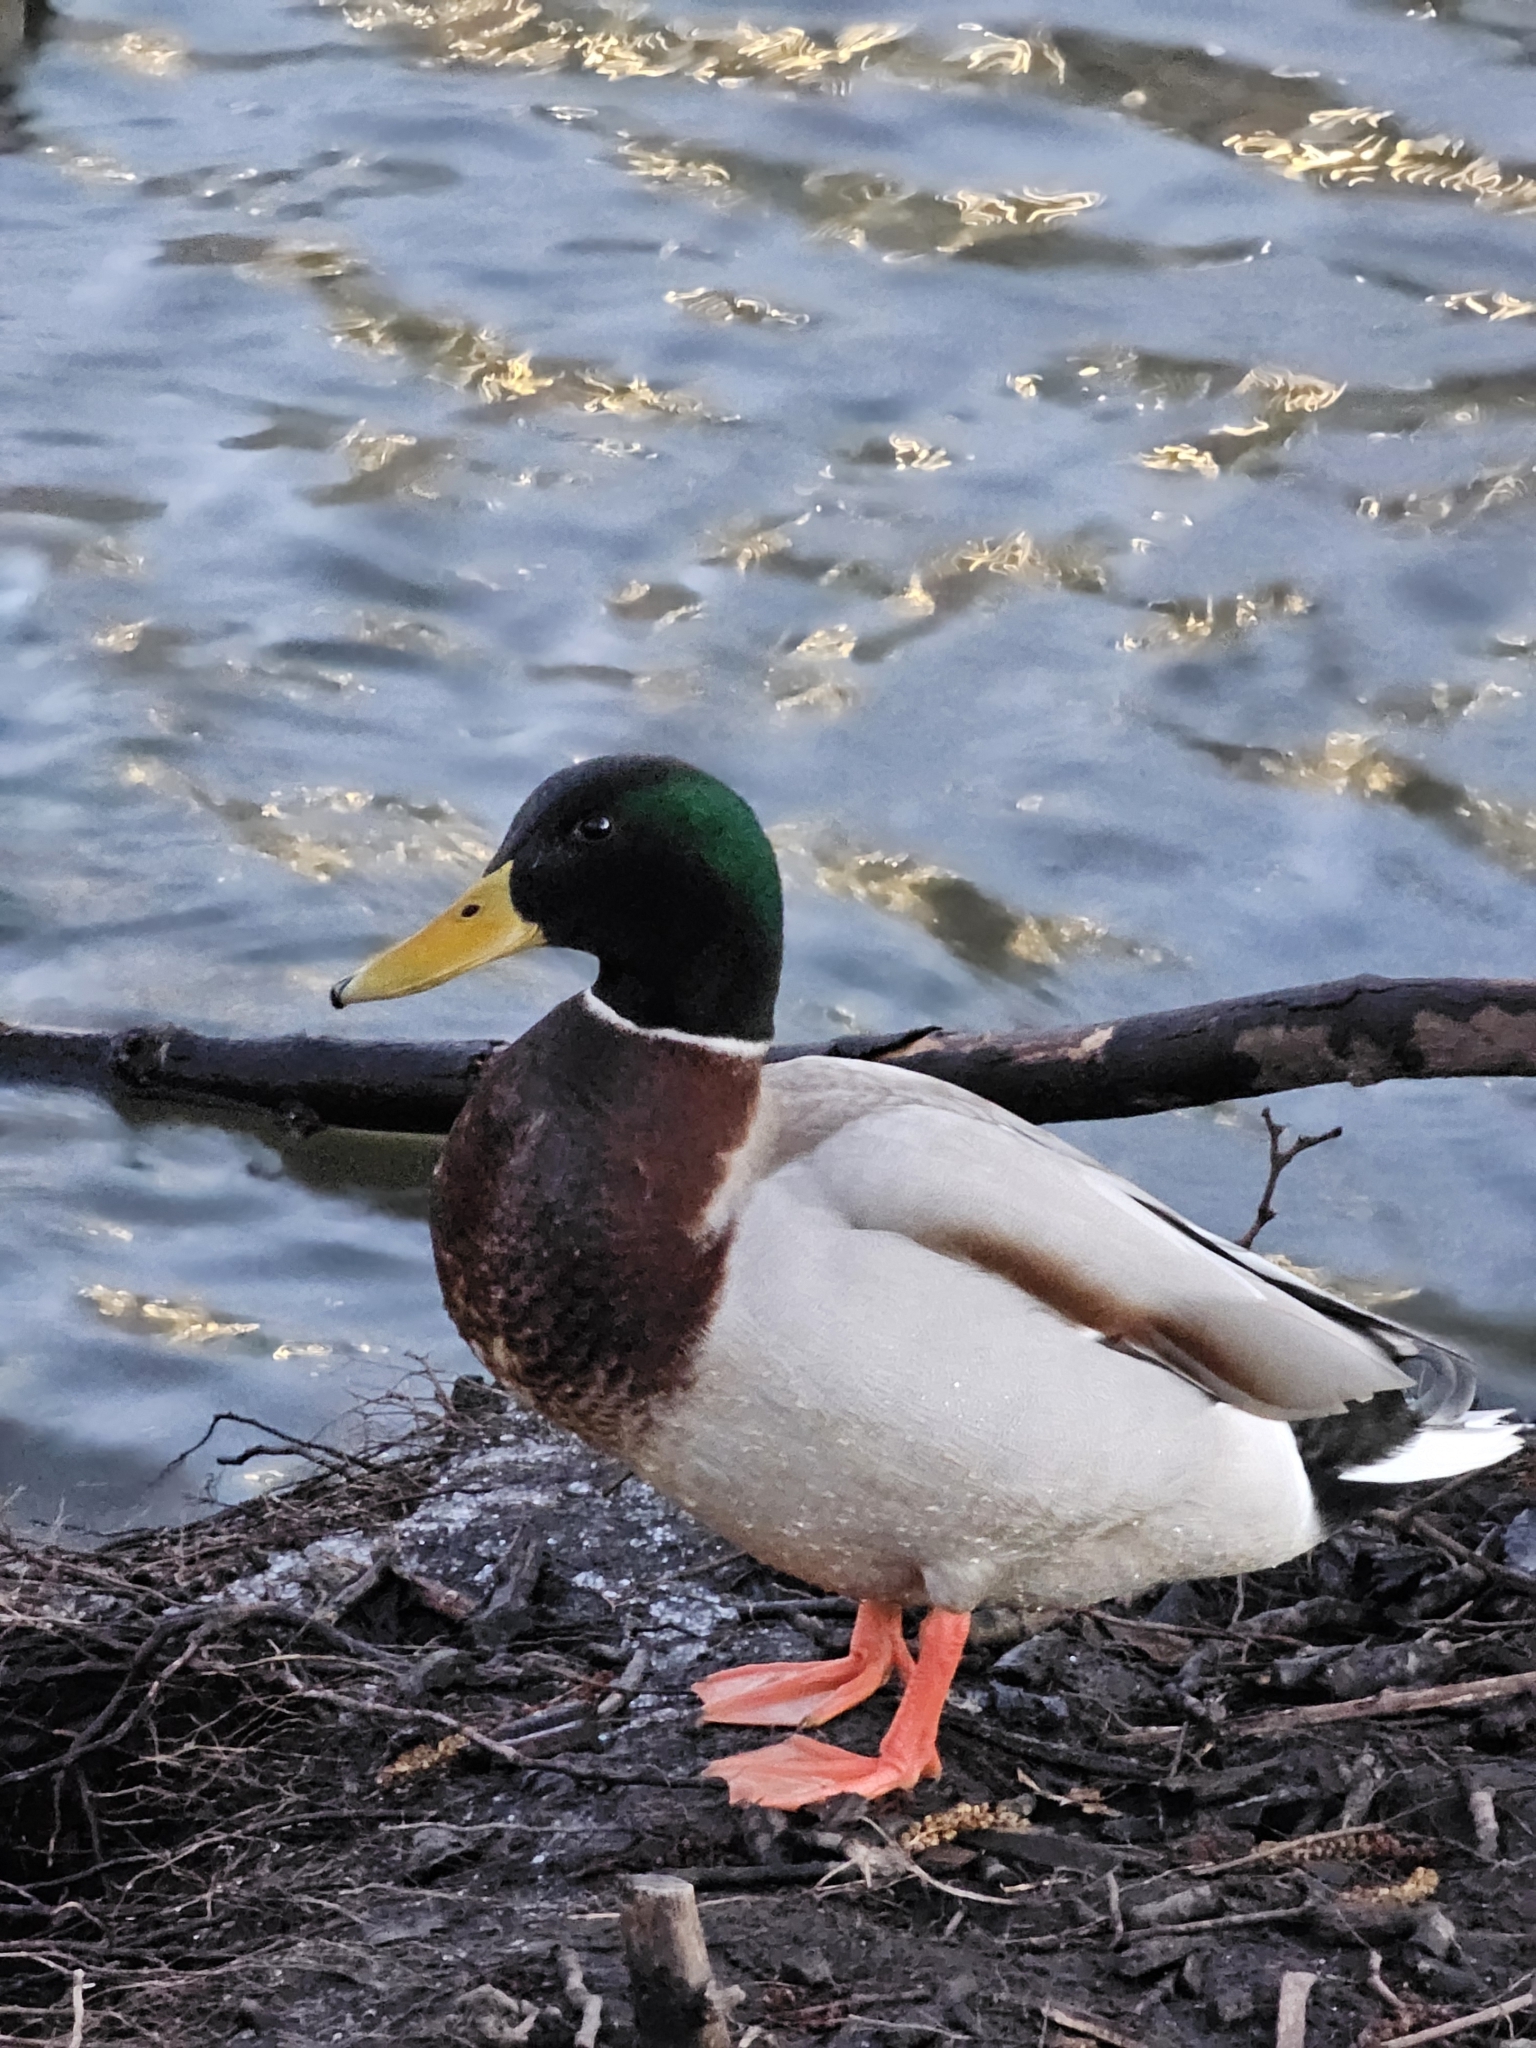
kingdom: Animalia
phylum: Chordata
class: Aves
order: Anseriformes
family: Anatidae
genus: Anas
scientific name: Anas platyrhynchos
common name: Mallard
